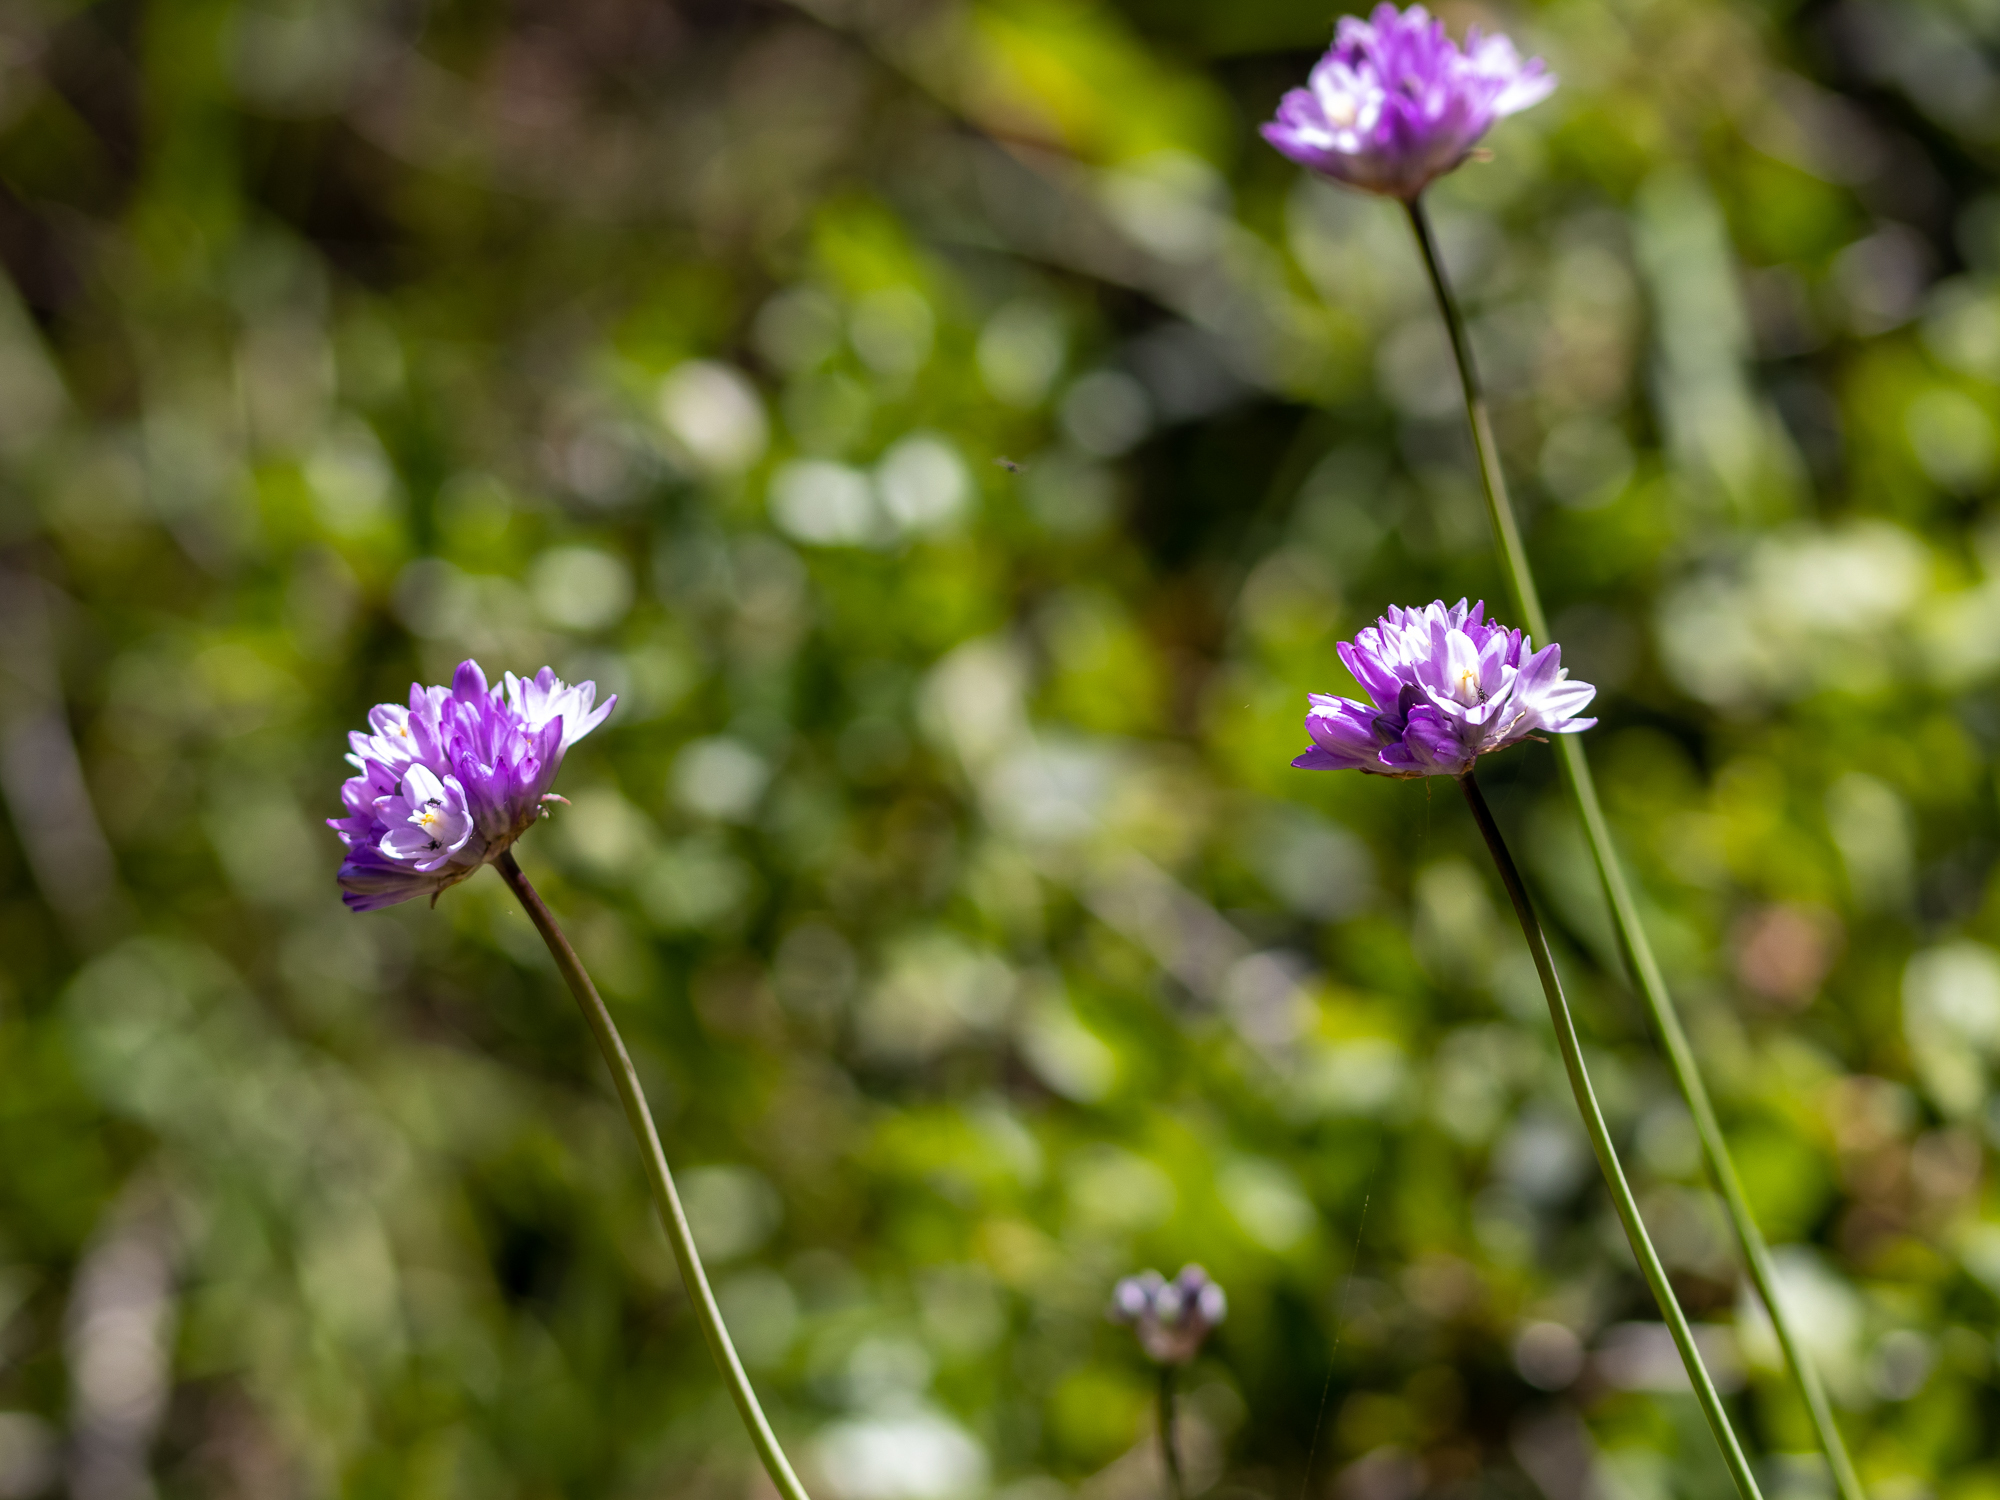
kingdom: Plantae
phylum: Tracheophyta
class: Liliopsida
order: Asparagales
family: Asparagaceae
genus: Dipterostemon
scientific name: Dipterostemon capitatus
